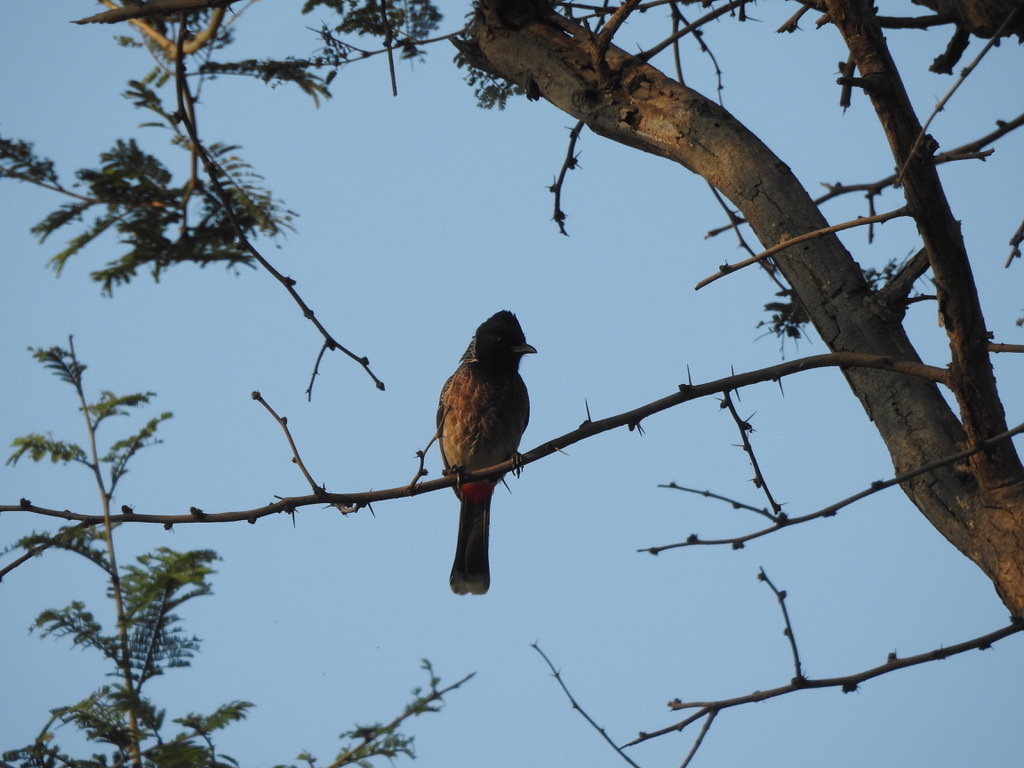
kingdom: Animalia
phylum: Chordata
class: Aves
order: Passeriformes
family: Pycnonotidae
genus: Pycnonotus
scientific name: Pycnonotus cafer
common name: Red-vented bulbul
